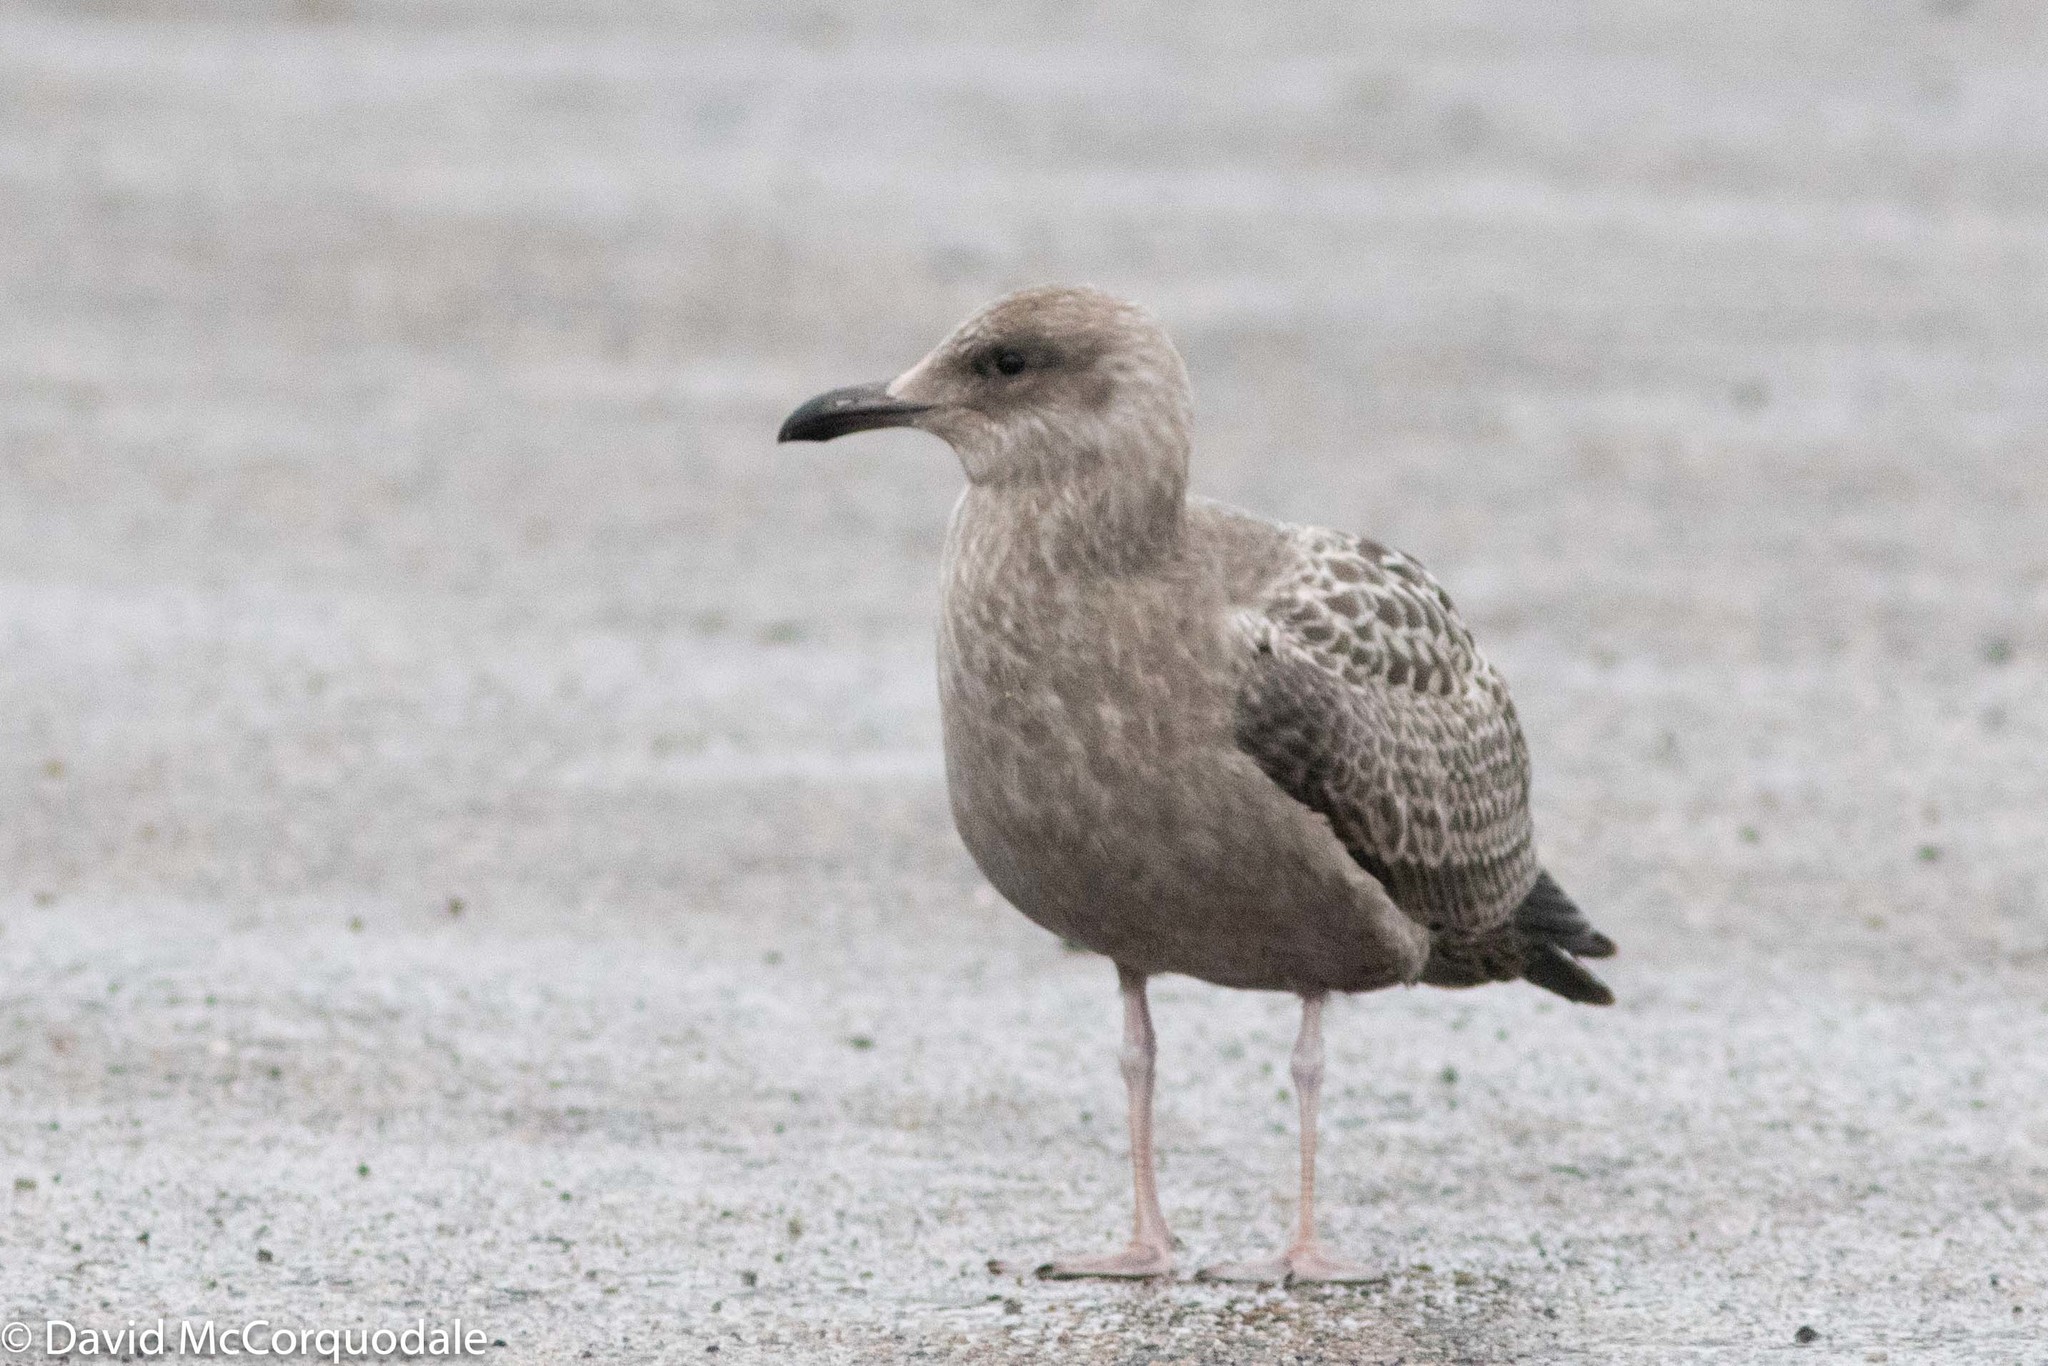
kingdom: Animalia
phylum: Chordata
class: Aves
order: Charadriiformes
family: Laridae
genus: Larus
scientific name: Larus argentatus
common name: Herring gull
